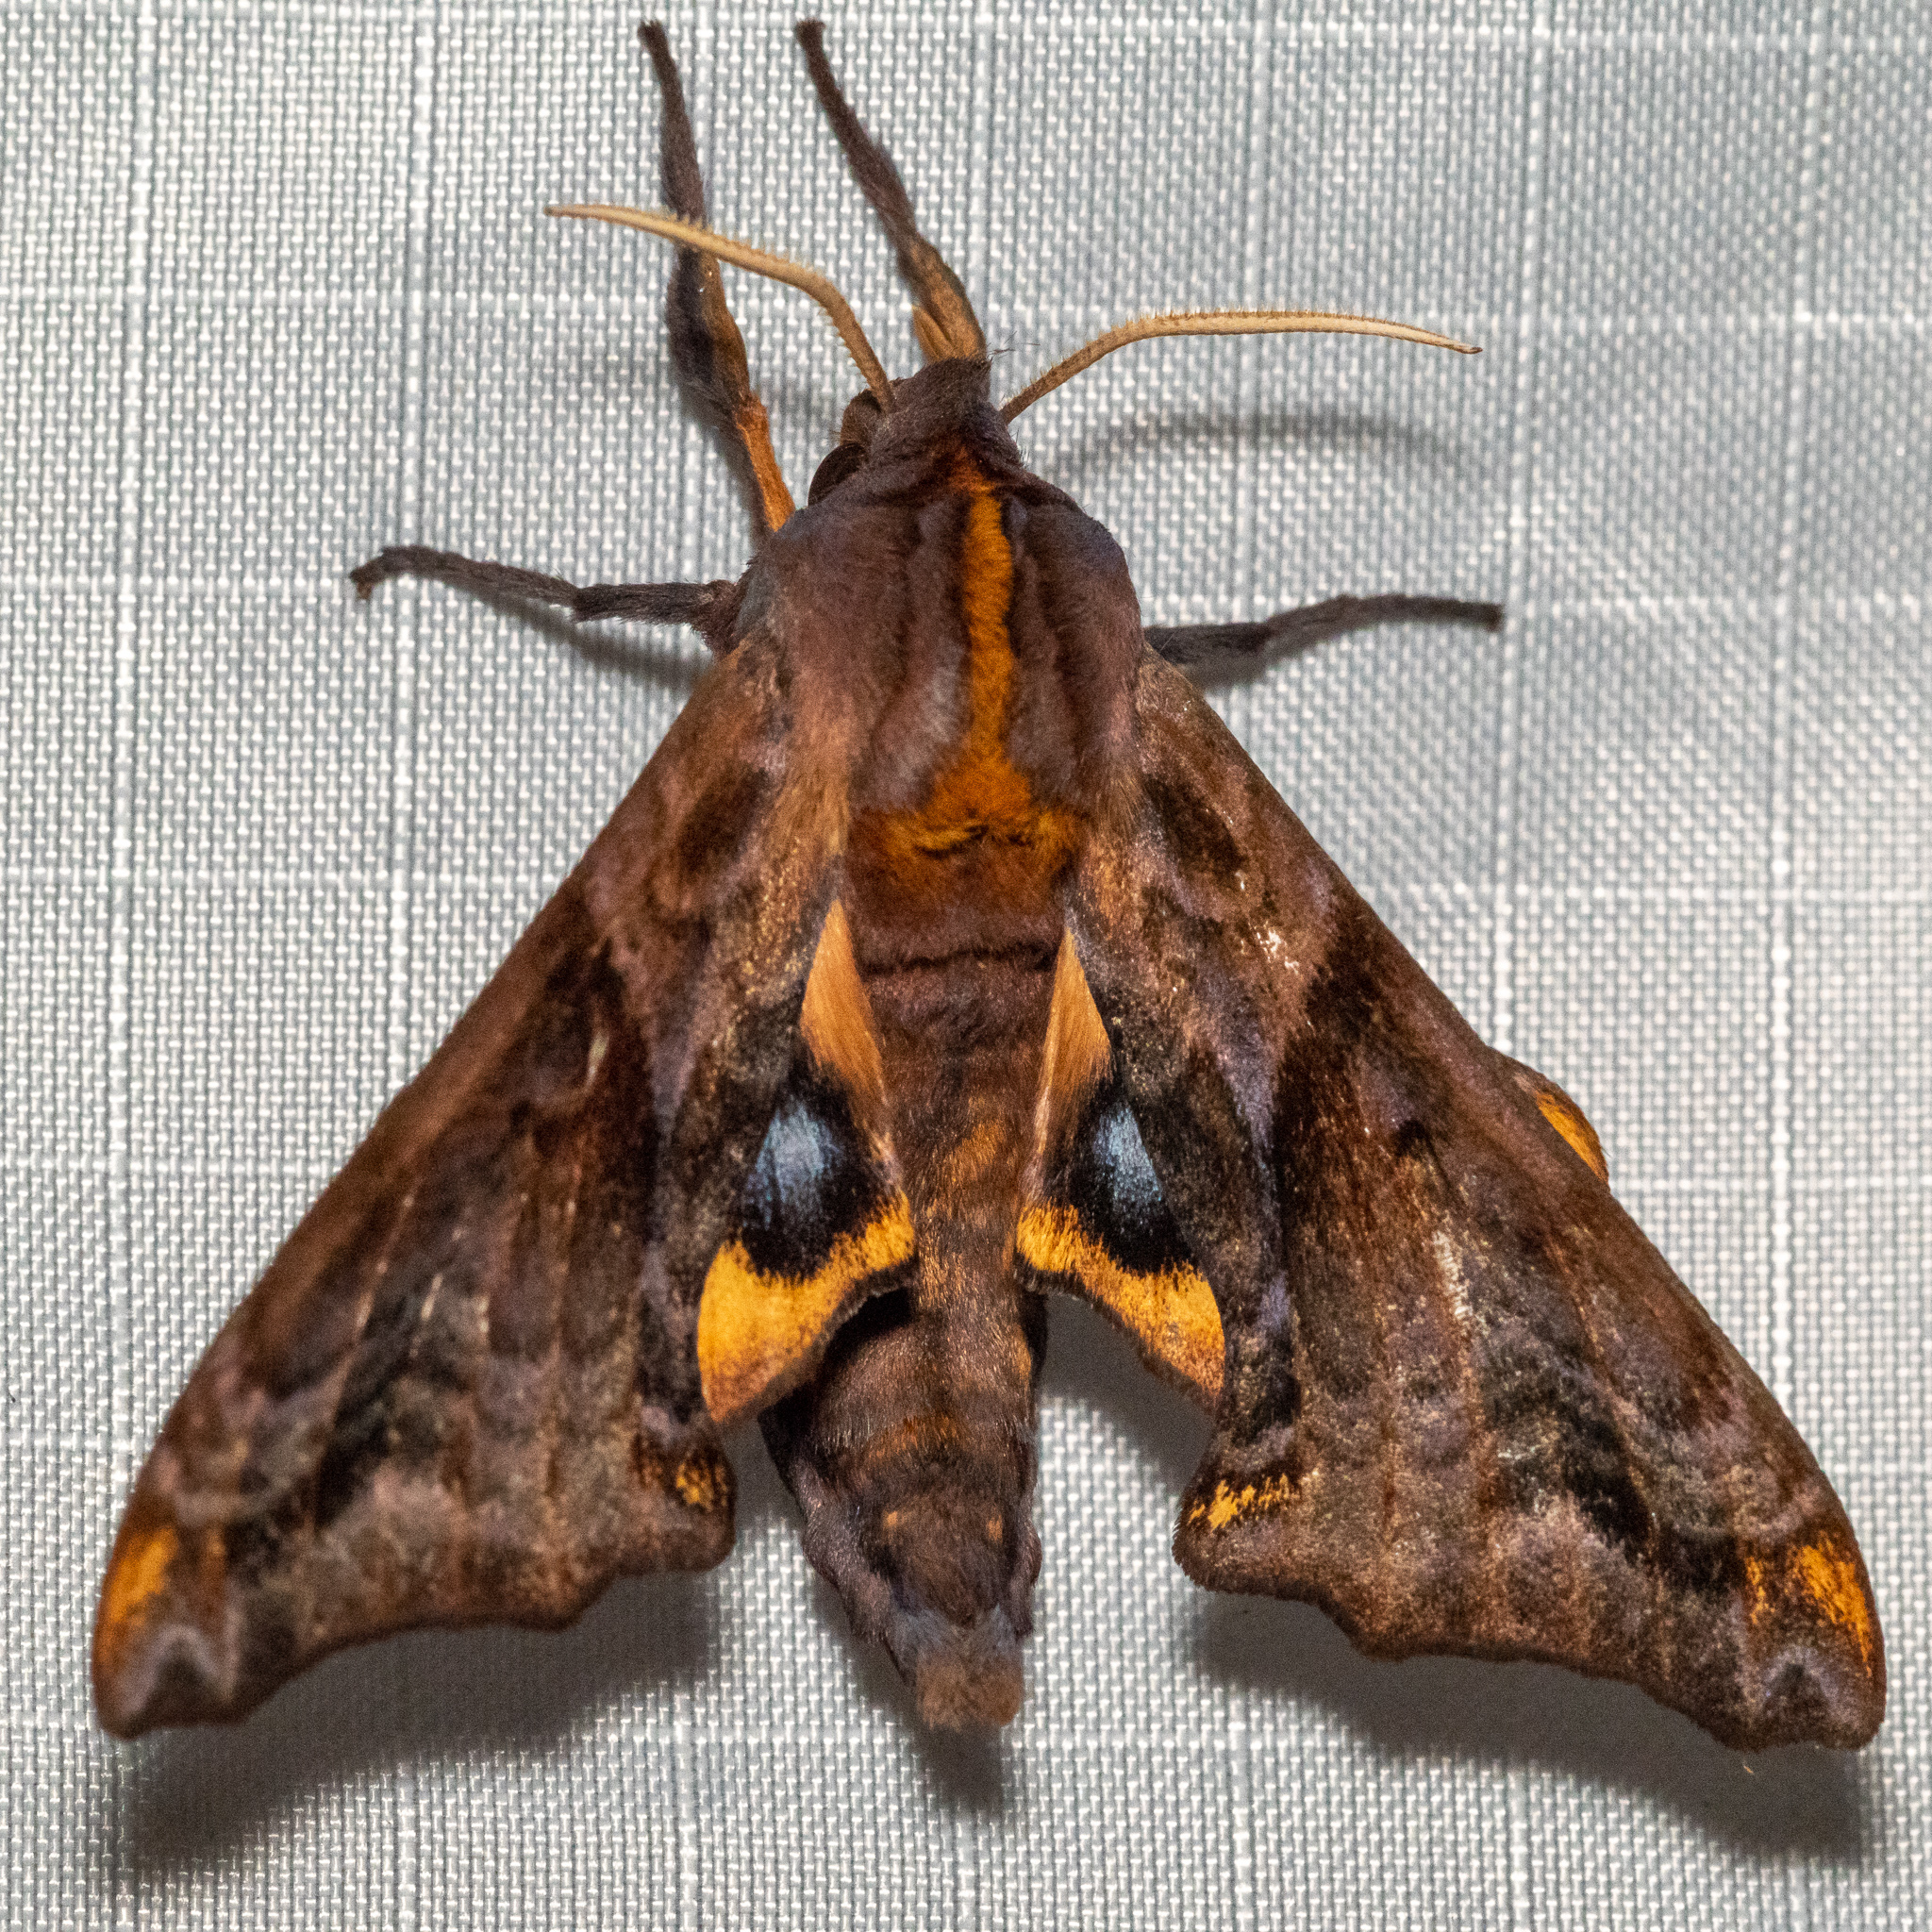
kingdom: Animalia
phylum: Arthropoda
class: Insecta
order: Lepidoptera
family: Sphingidae
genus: Paonias
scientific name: Paonias myops
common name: Small-eyed sphinx
